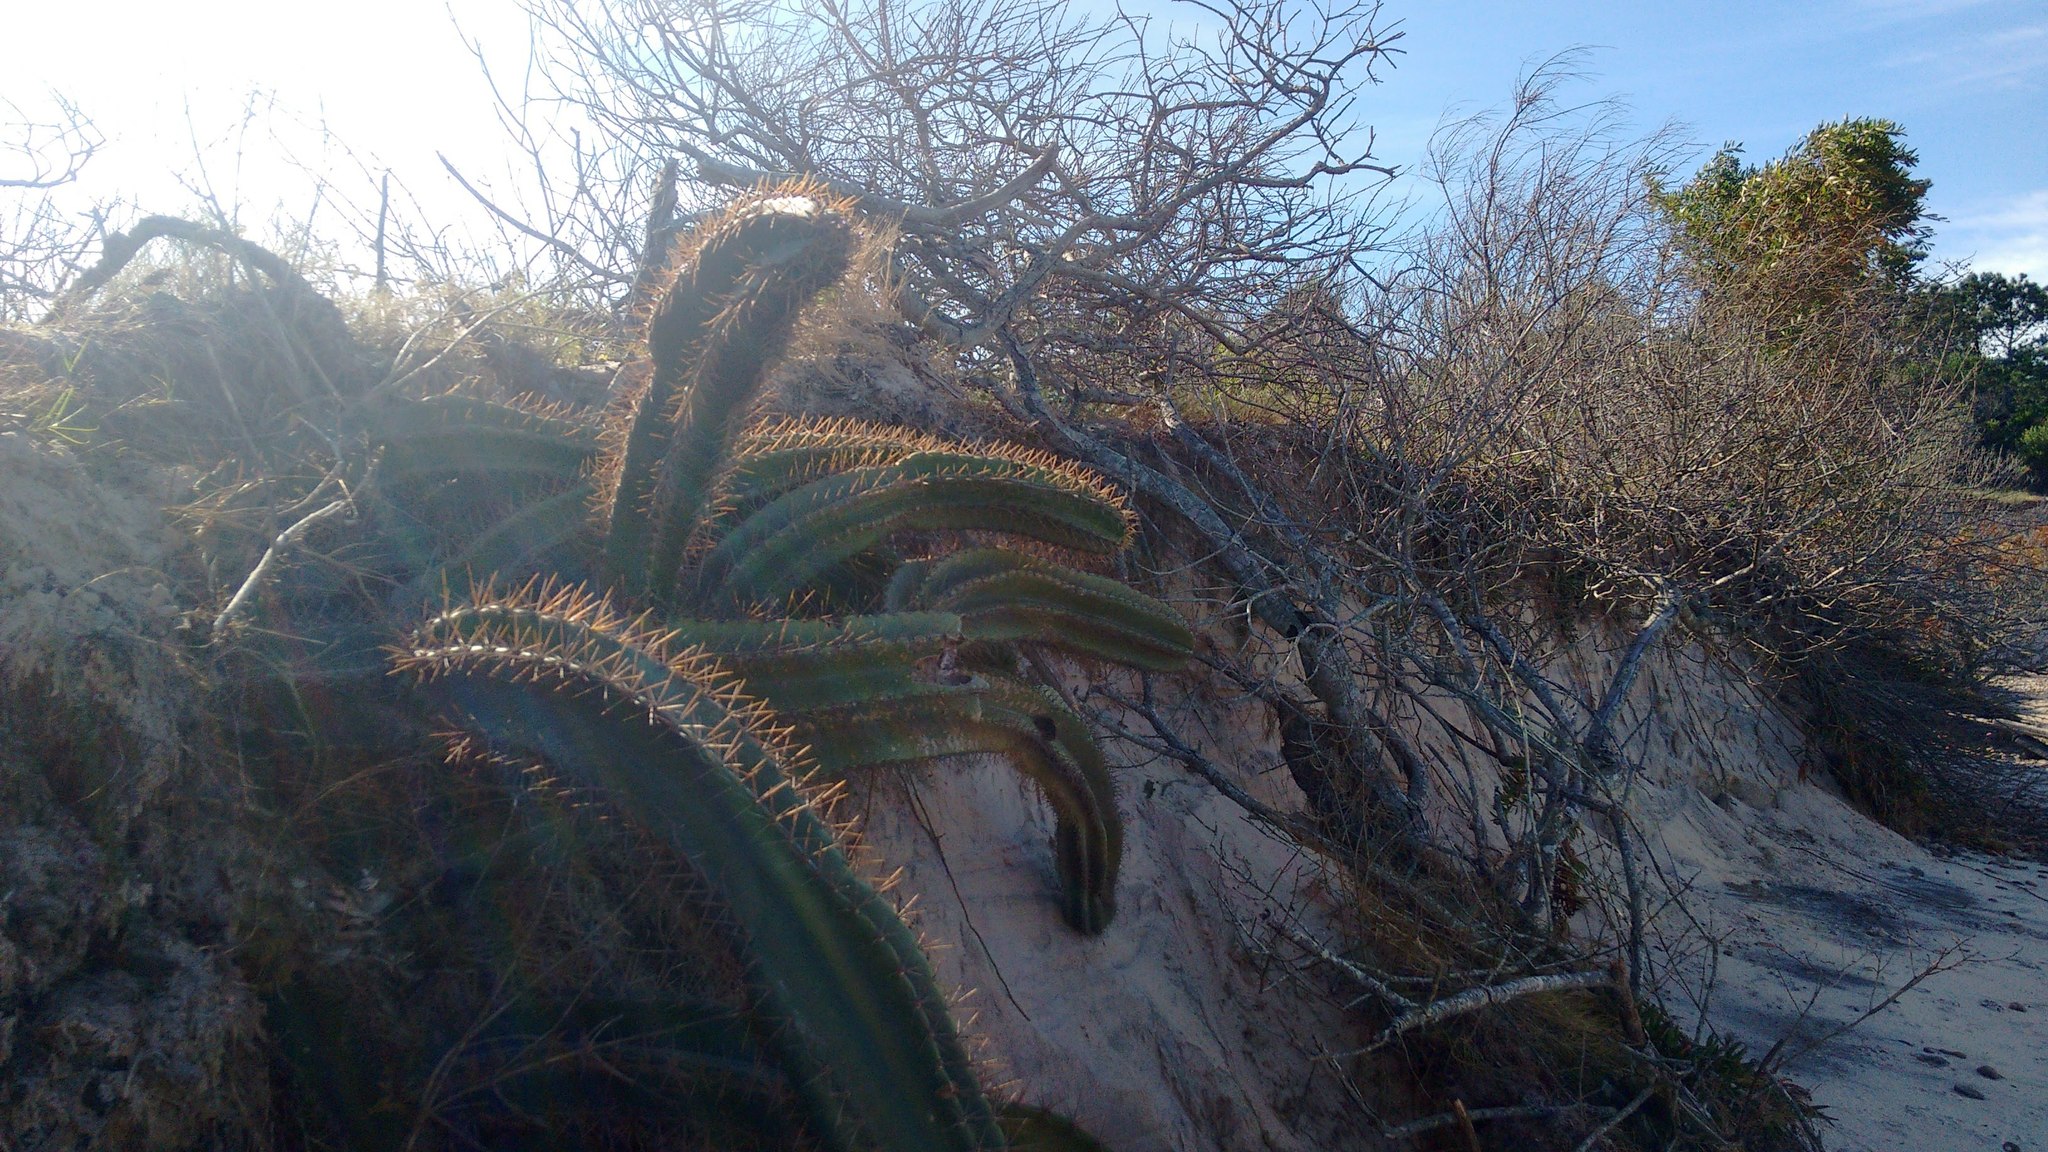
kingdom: Plantae
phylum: Tracheophyta
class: Magnoliopsida
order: Caryophyllales
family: Cactaceae
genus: Cereus
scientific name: Cereus hildmannianus
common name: Hedge cactus
